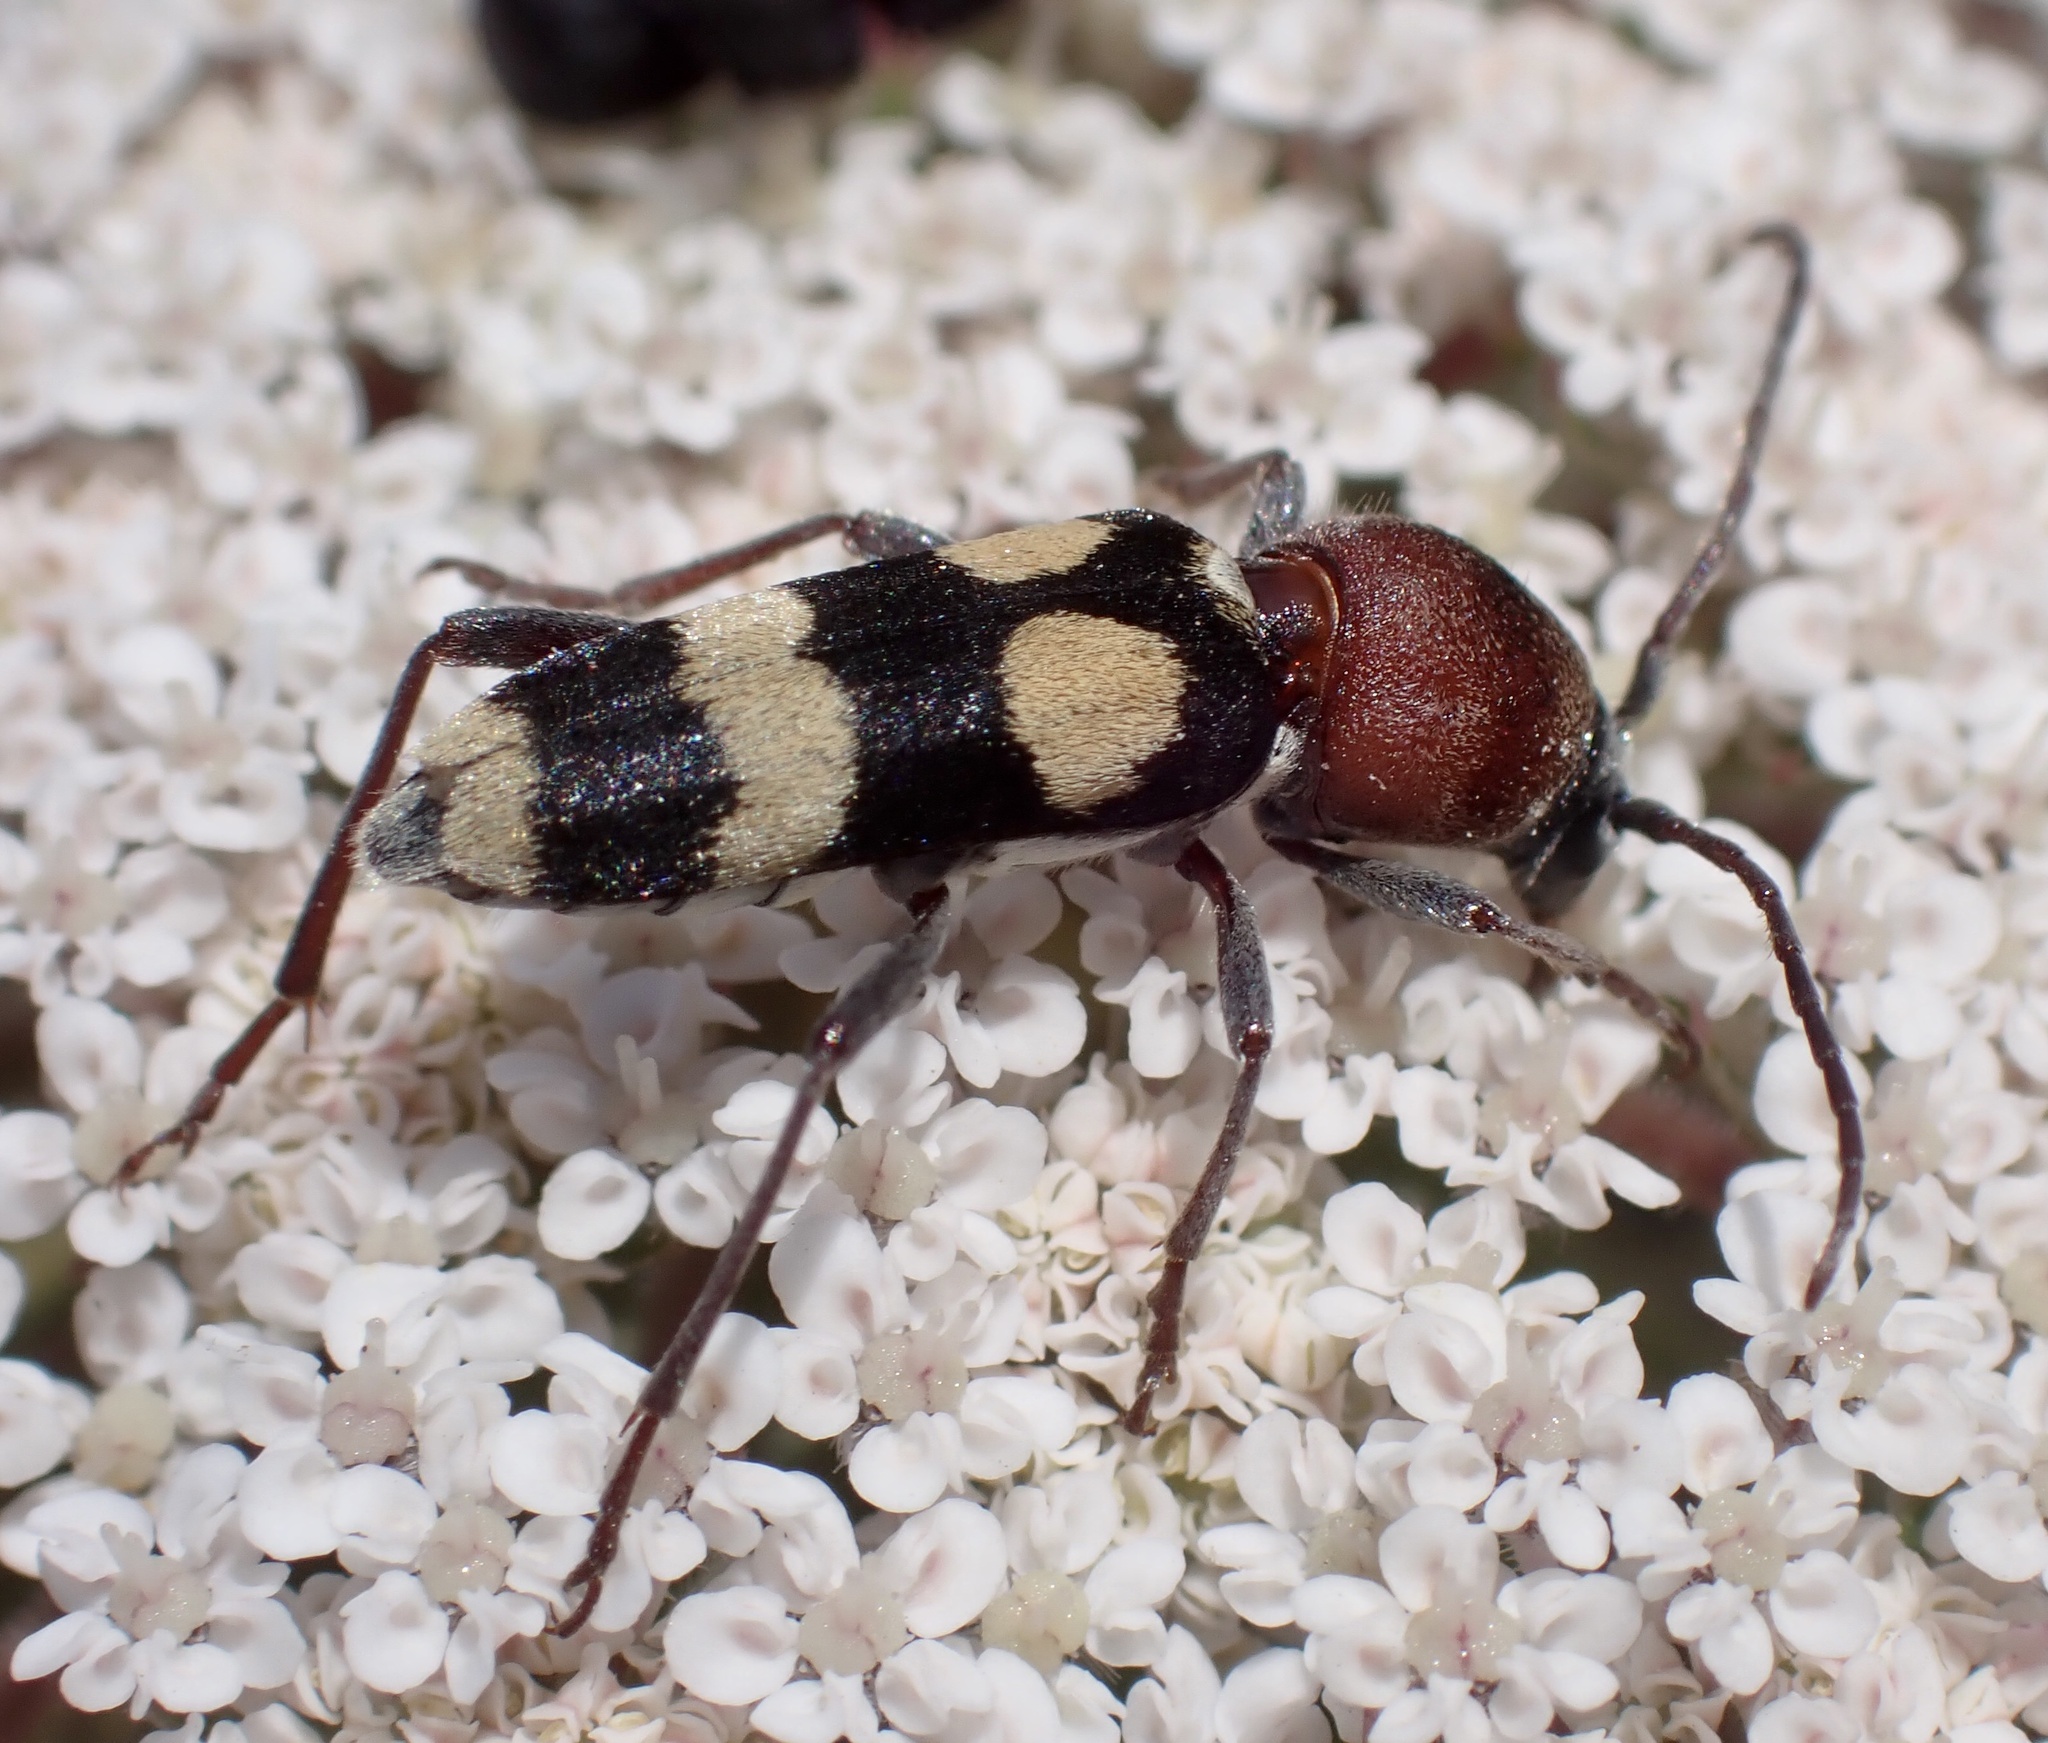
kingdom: Animalia
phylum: Arthropoda
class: Insecta
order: Coleoptera
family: Cerambycidae
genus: Chlorophorus
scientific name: Chlorophorus trifasciatus
